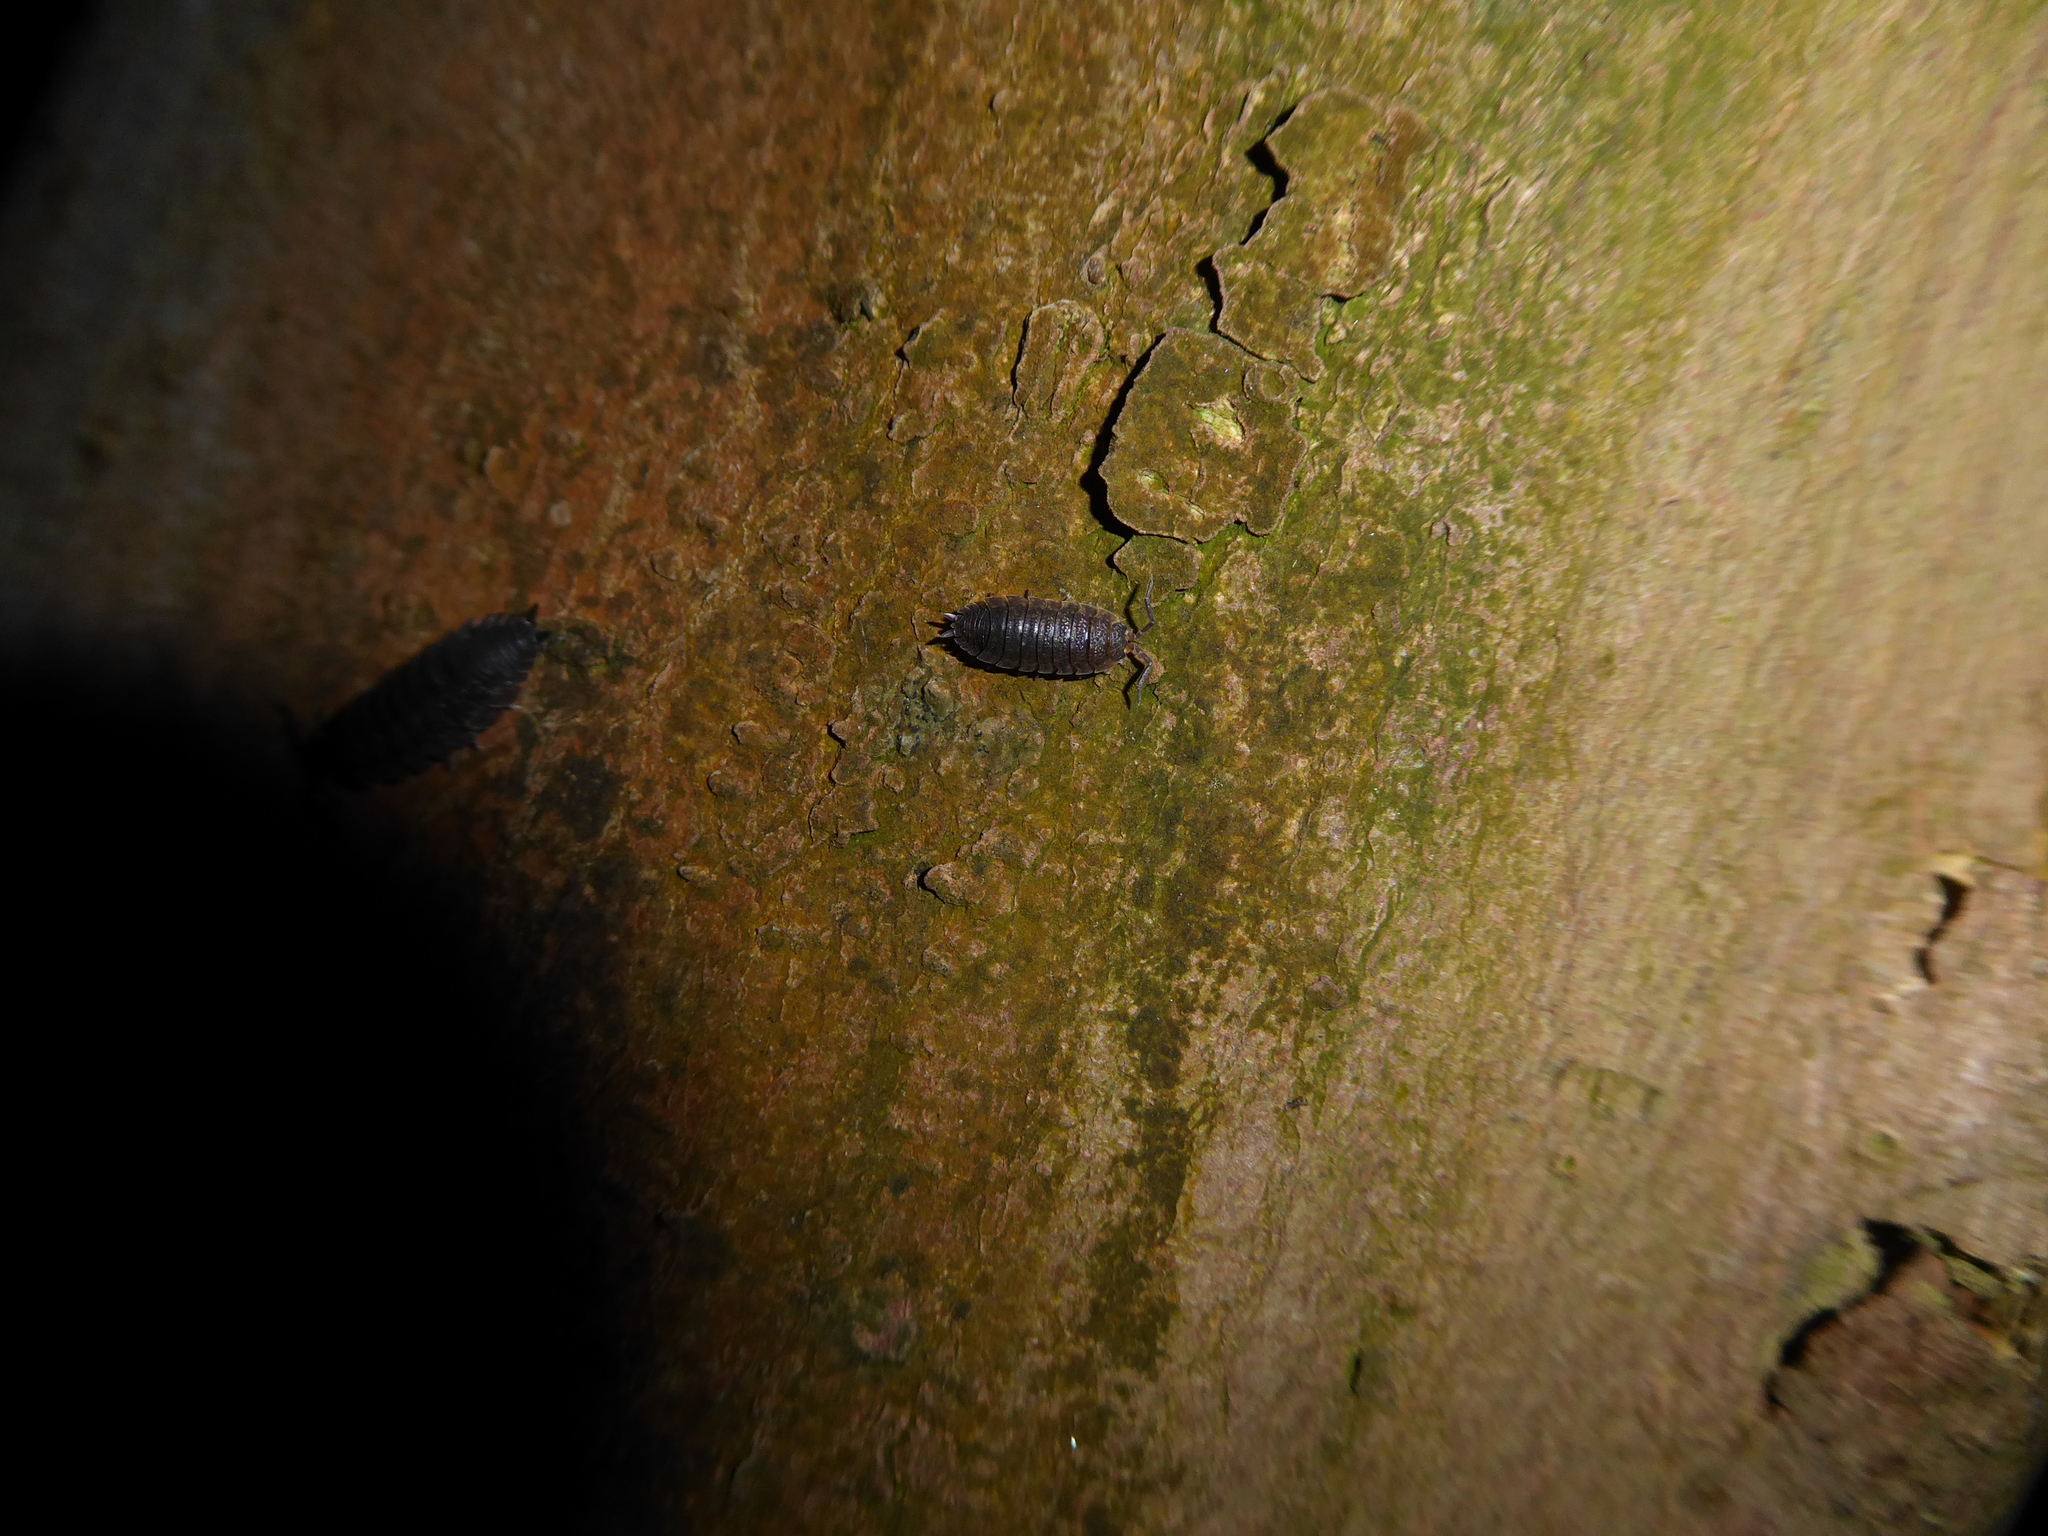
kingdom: Animalia
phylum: Arthropoda
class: Malacostraca
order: Isopoda
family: Porcellionidae
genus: Porcellio
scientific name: Porcellio scaber
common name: Common rough woodlouse
